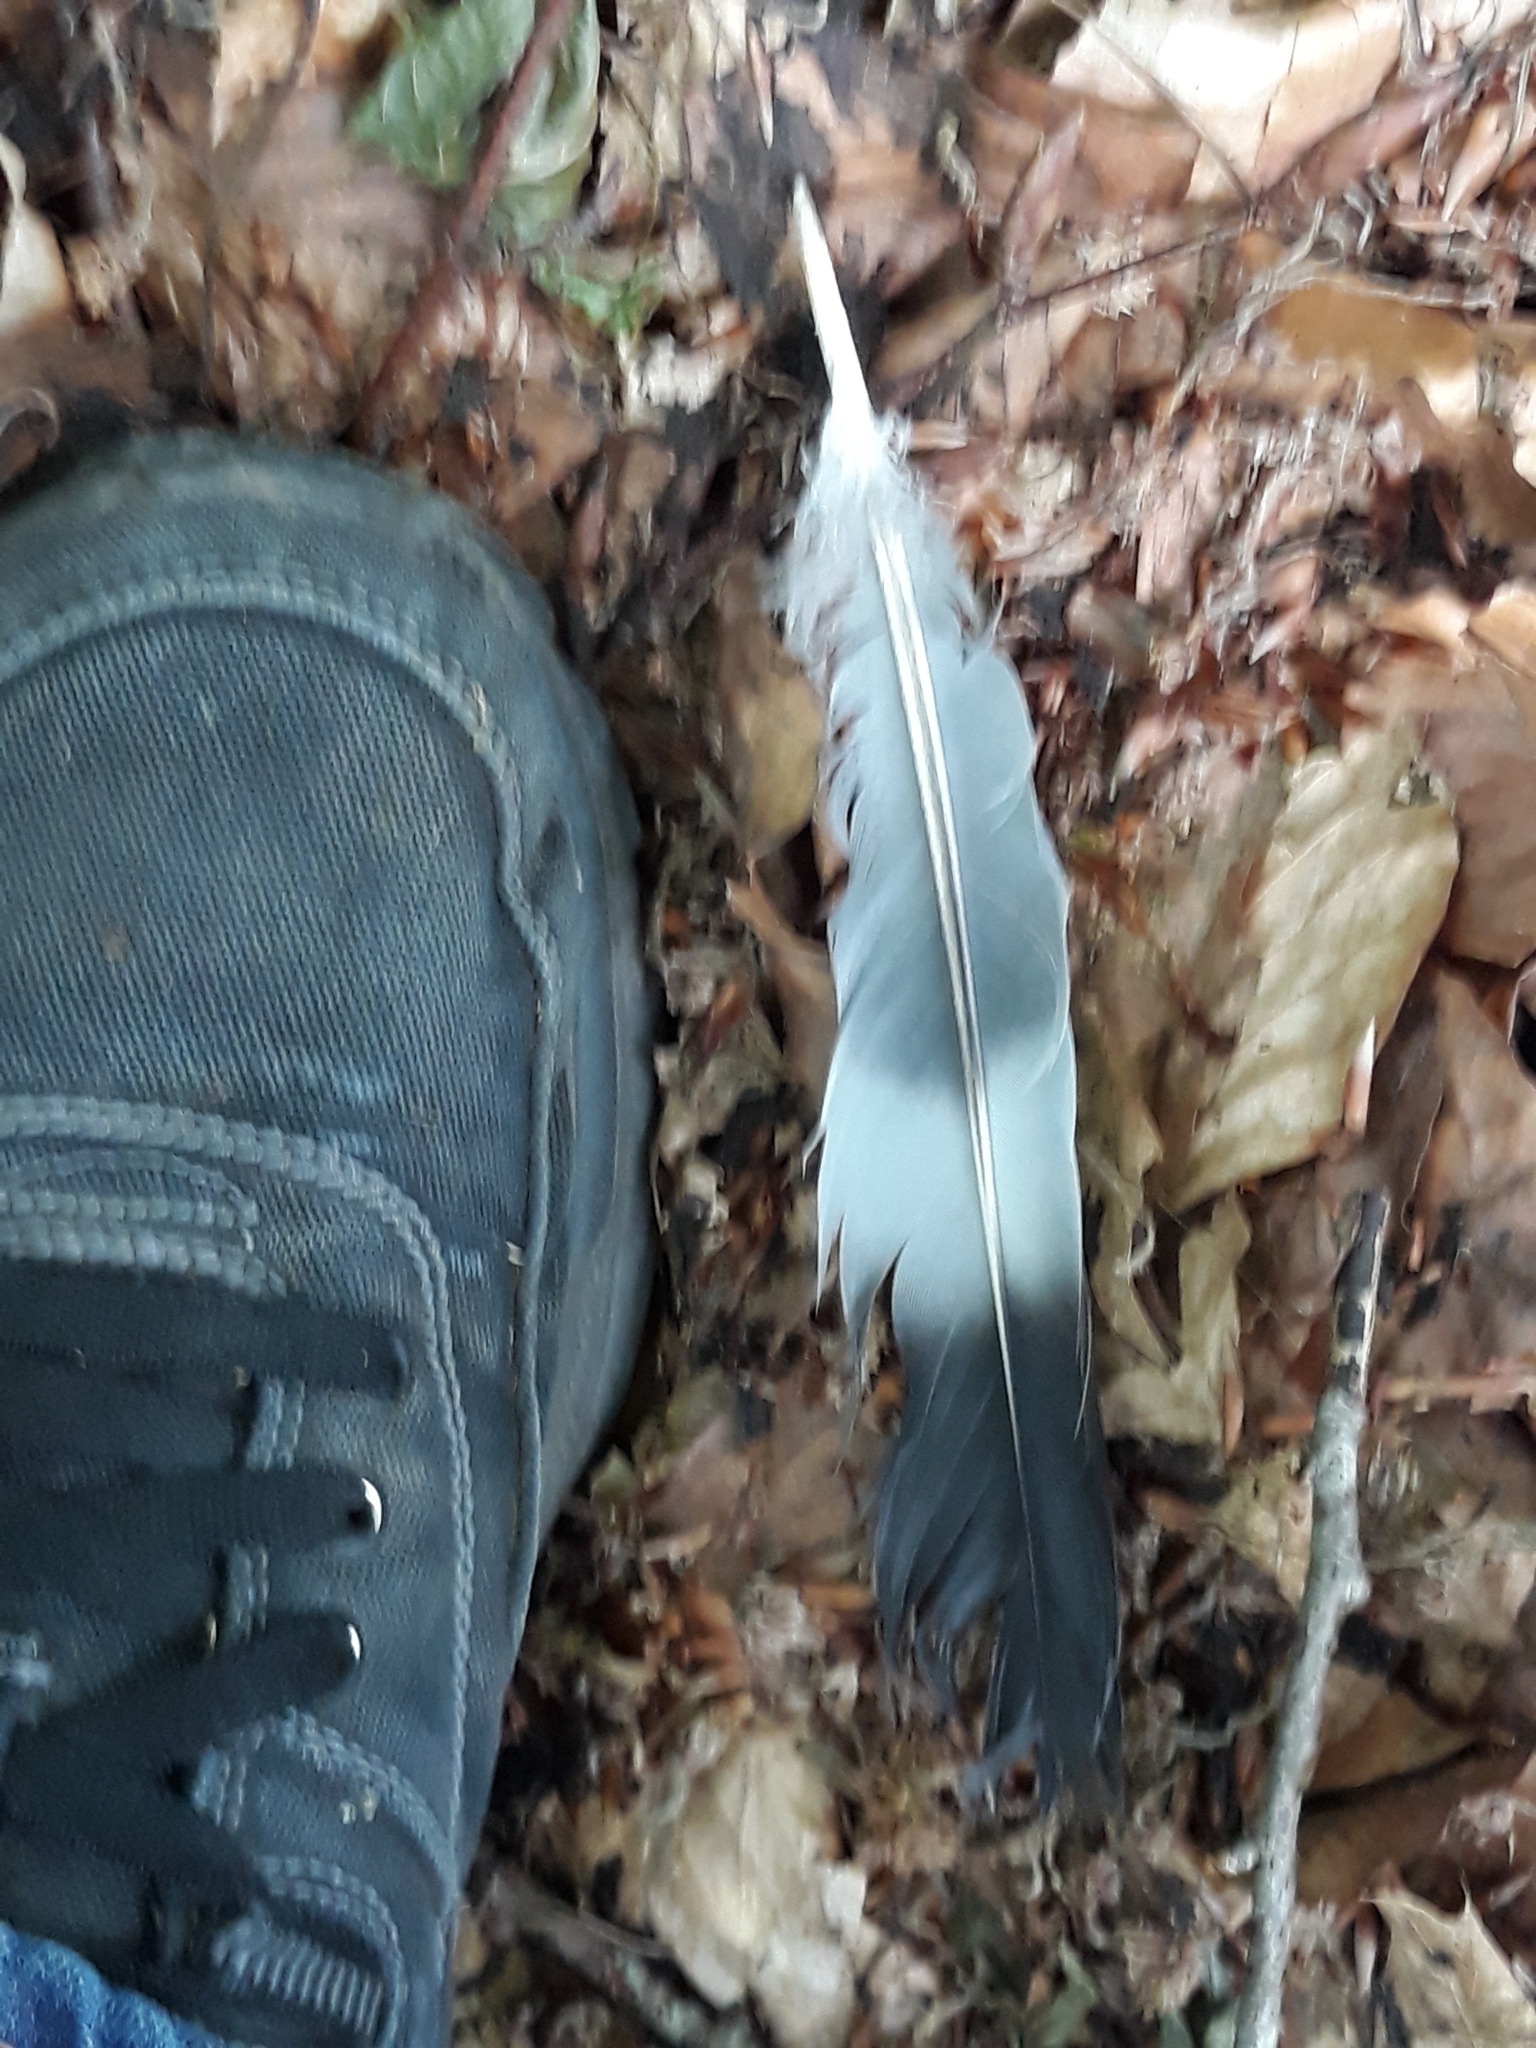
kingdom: Animalia
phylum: Chordata
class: Aves
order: Columbiformes
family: Columbidae
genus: Columba
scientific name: Columba palumbus
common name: Common wood pigeon
